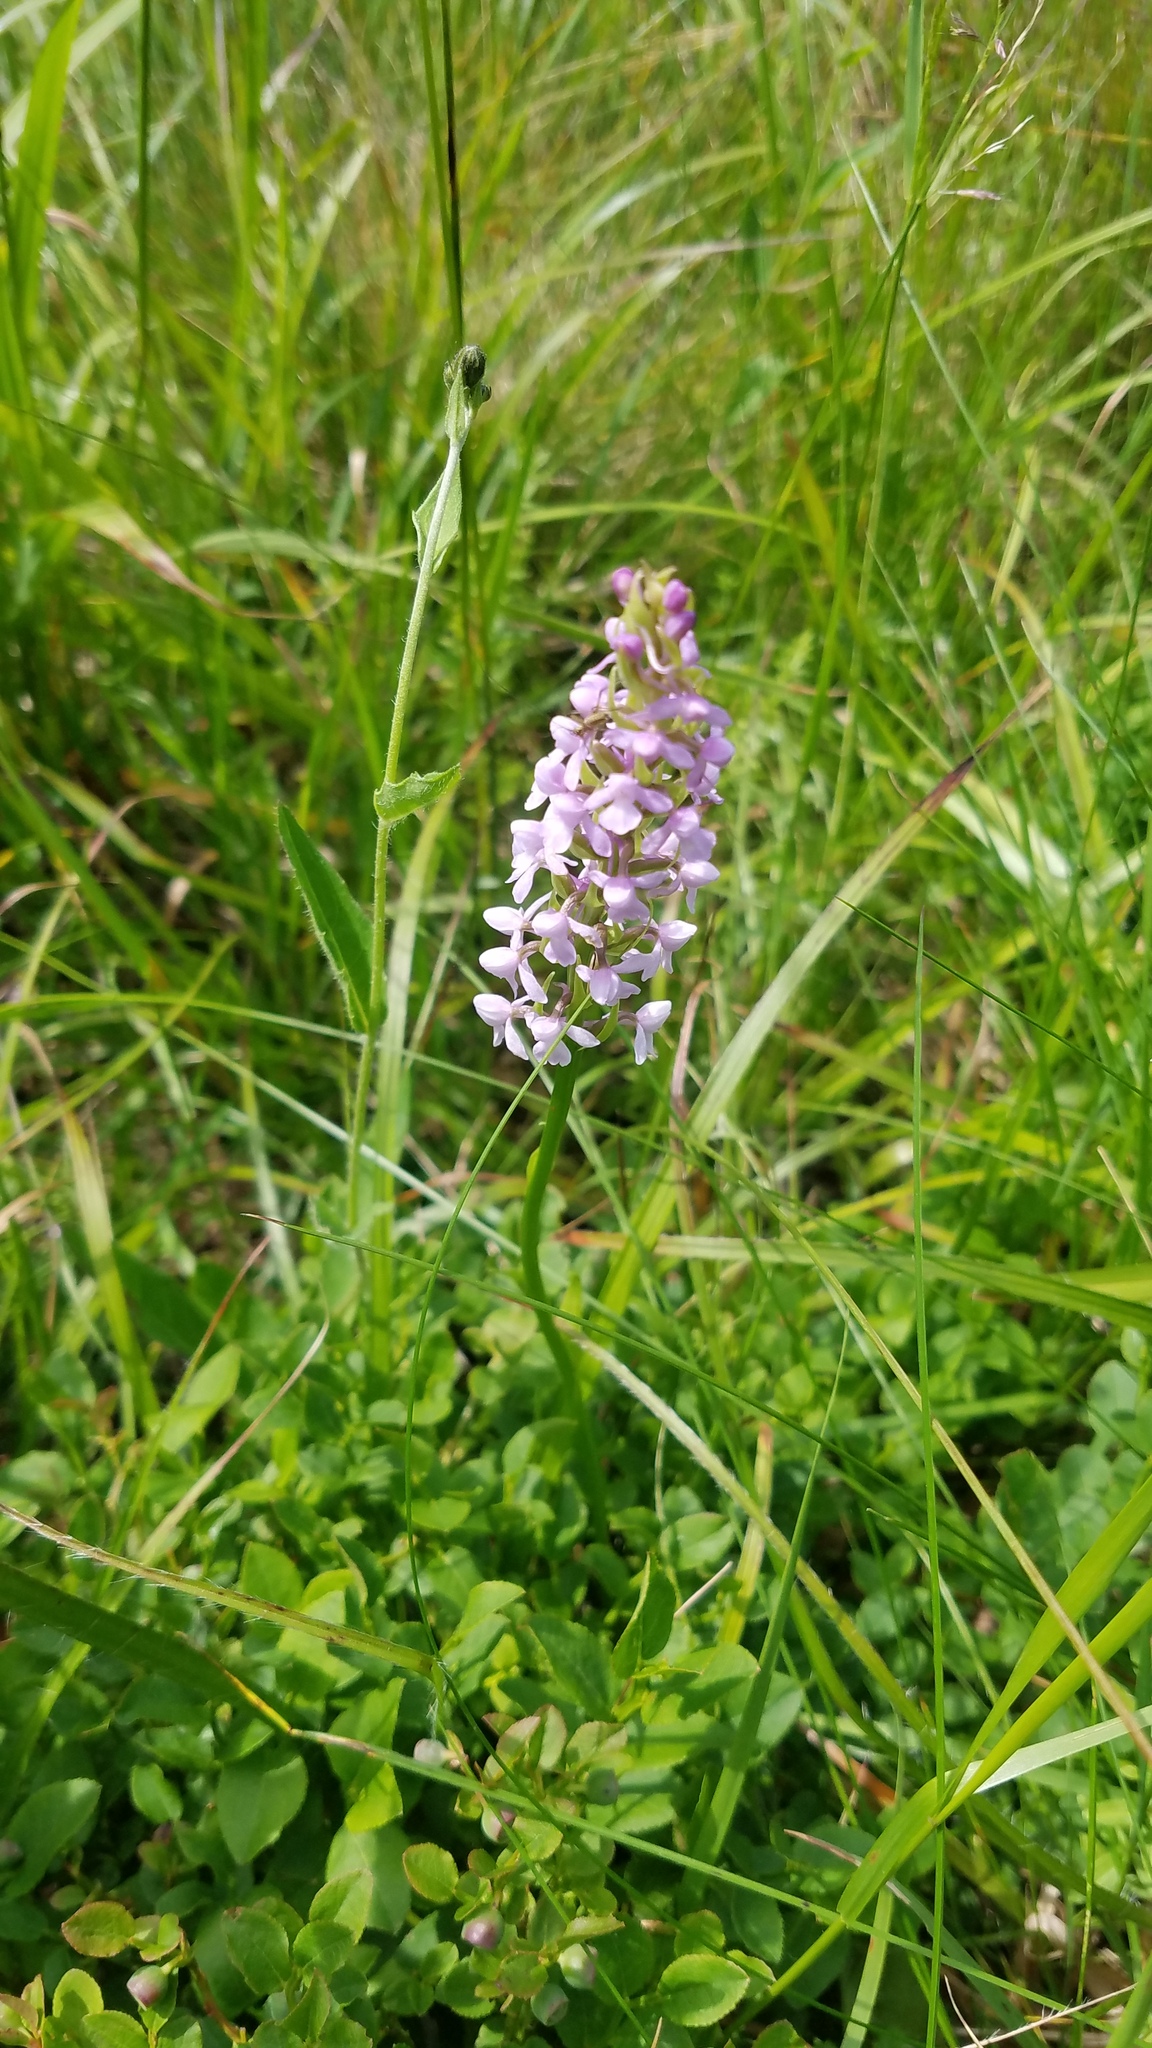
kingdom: Plantae
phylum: Tracheophyta
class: Liliopsida
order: Asparagales
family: Orchidaceae
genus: Gymnadenia
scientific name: Gymnadenia conopsea
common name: Fragrant orchid
